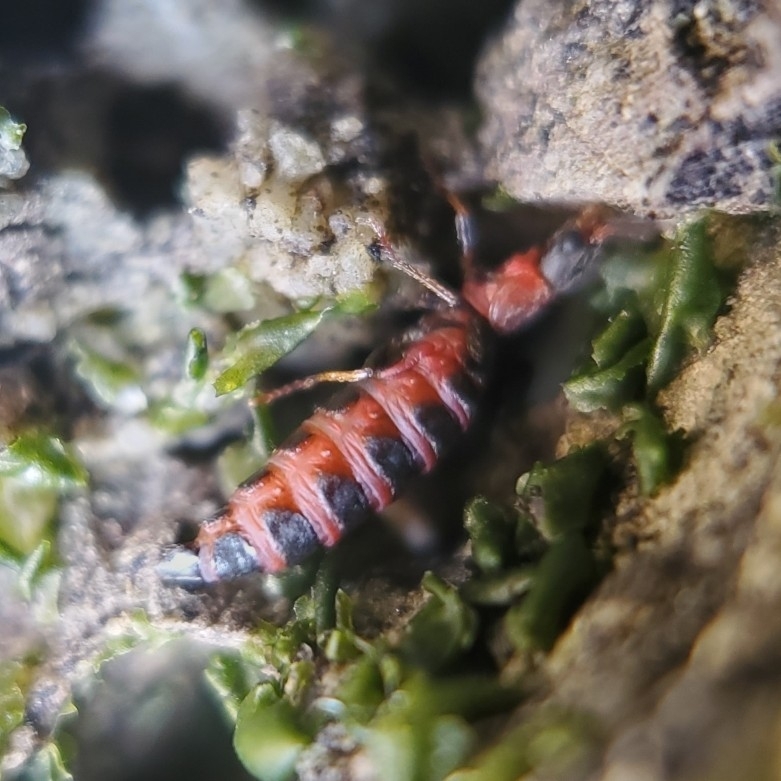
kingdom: Animalia
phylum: Arthropoda
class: Insecta
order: Coleoptera
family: Melyridae
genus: Endeodes
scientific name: Endeodes collaris
